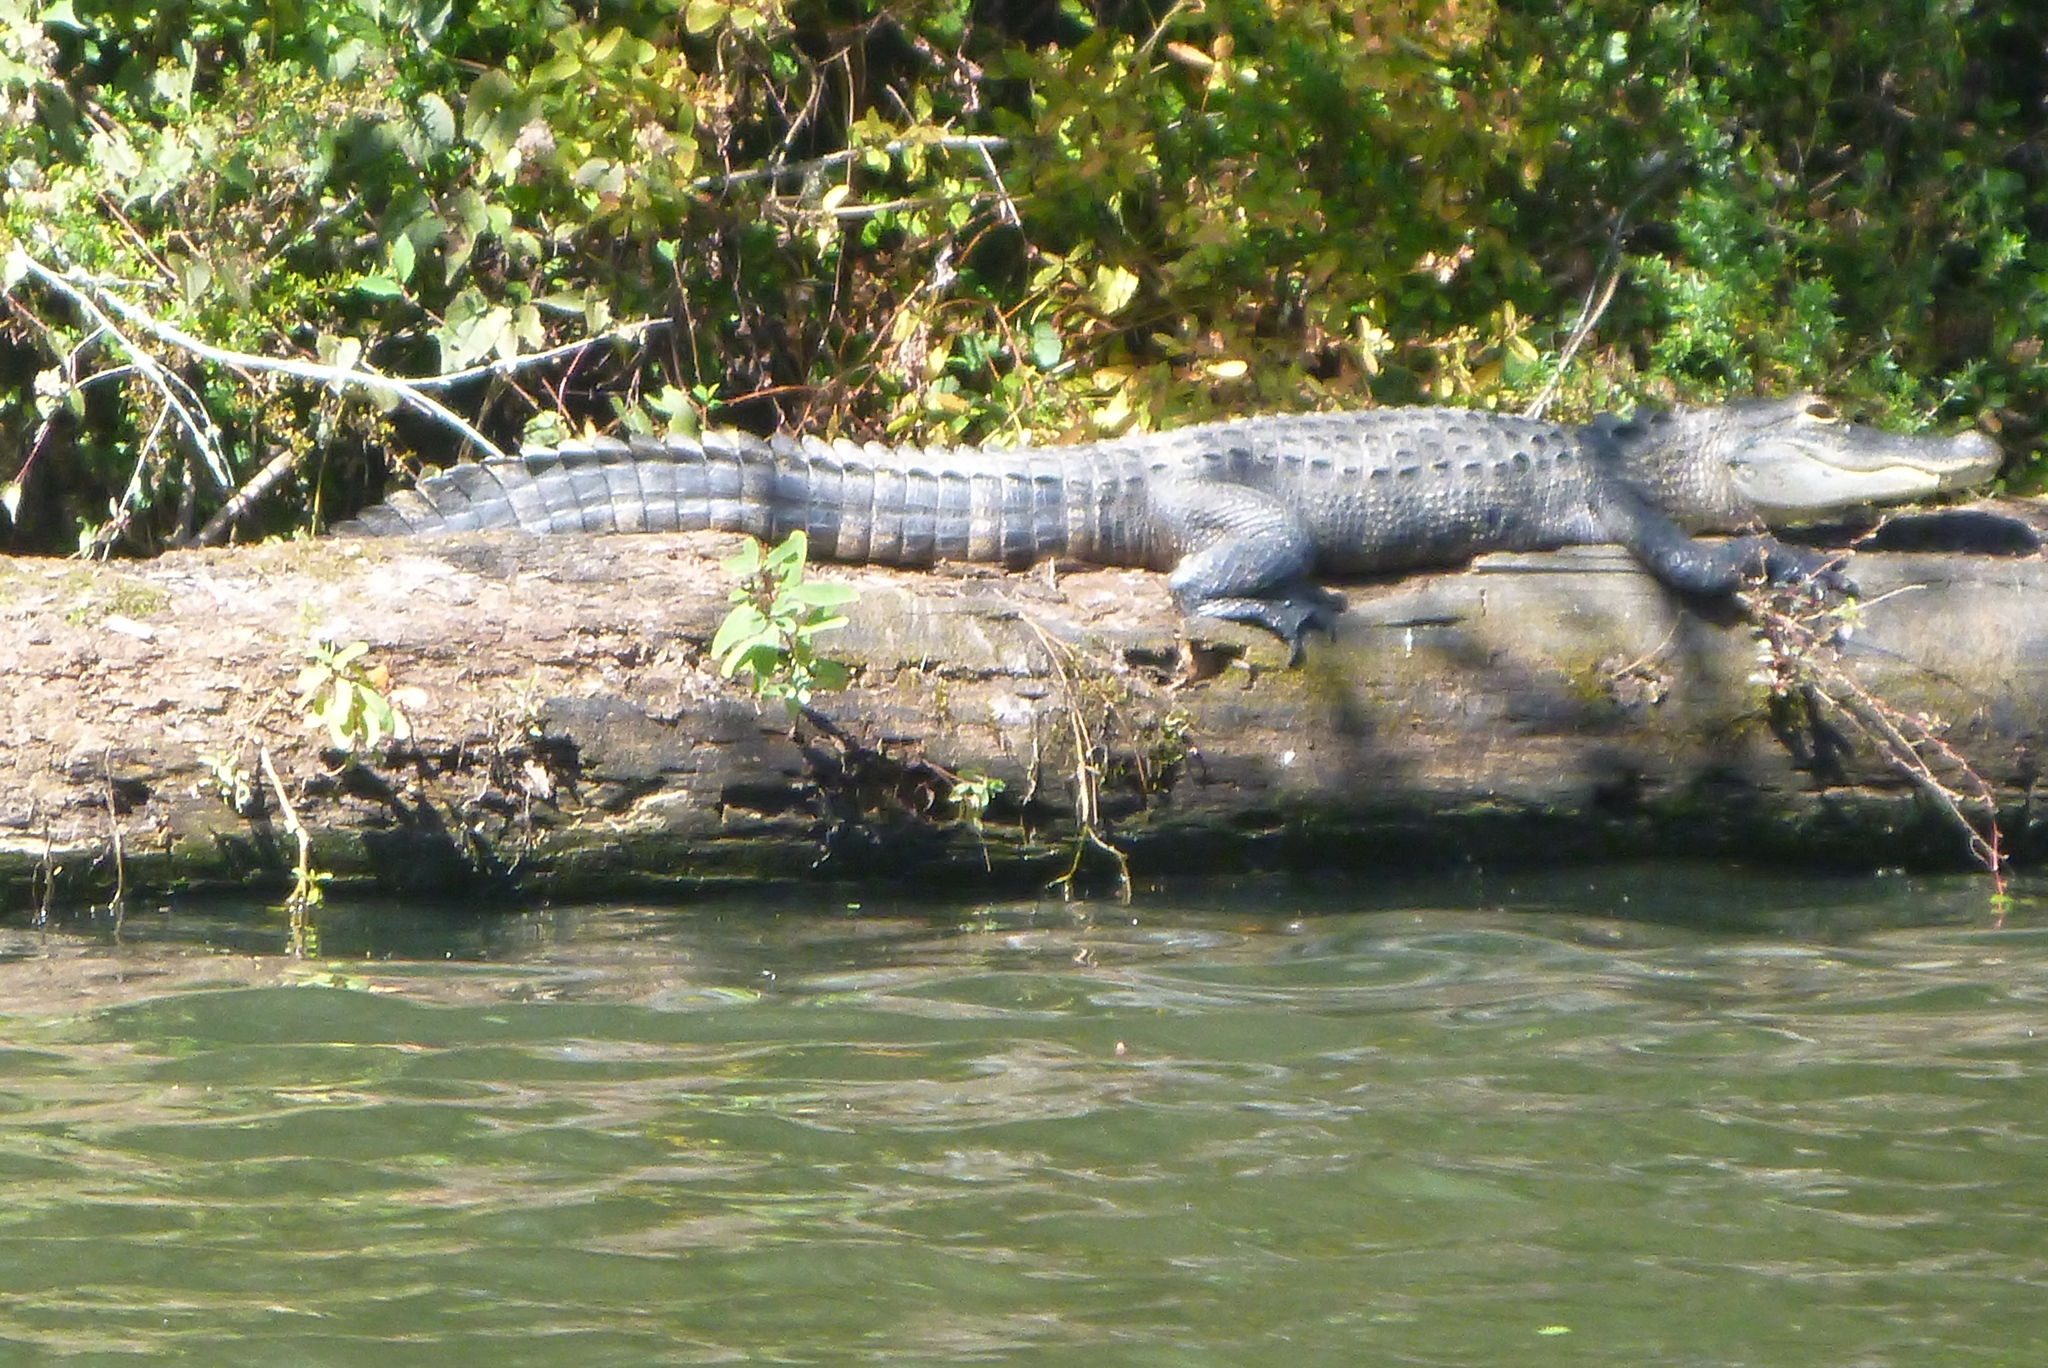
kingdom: Animalia
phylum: Chordata
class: Crocodylia
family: Alligatoridae
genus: Alligator
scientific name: Alligator mississippiensis
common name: American alligator
